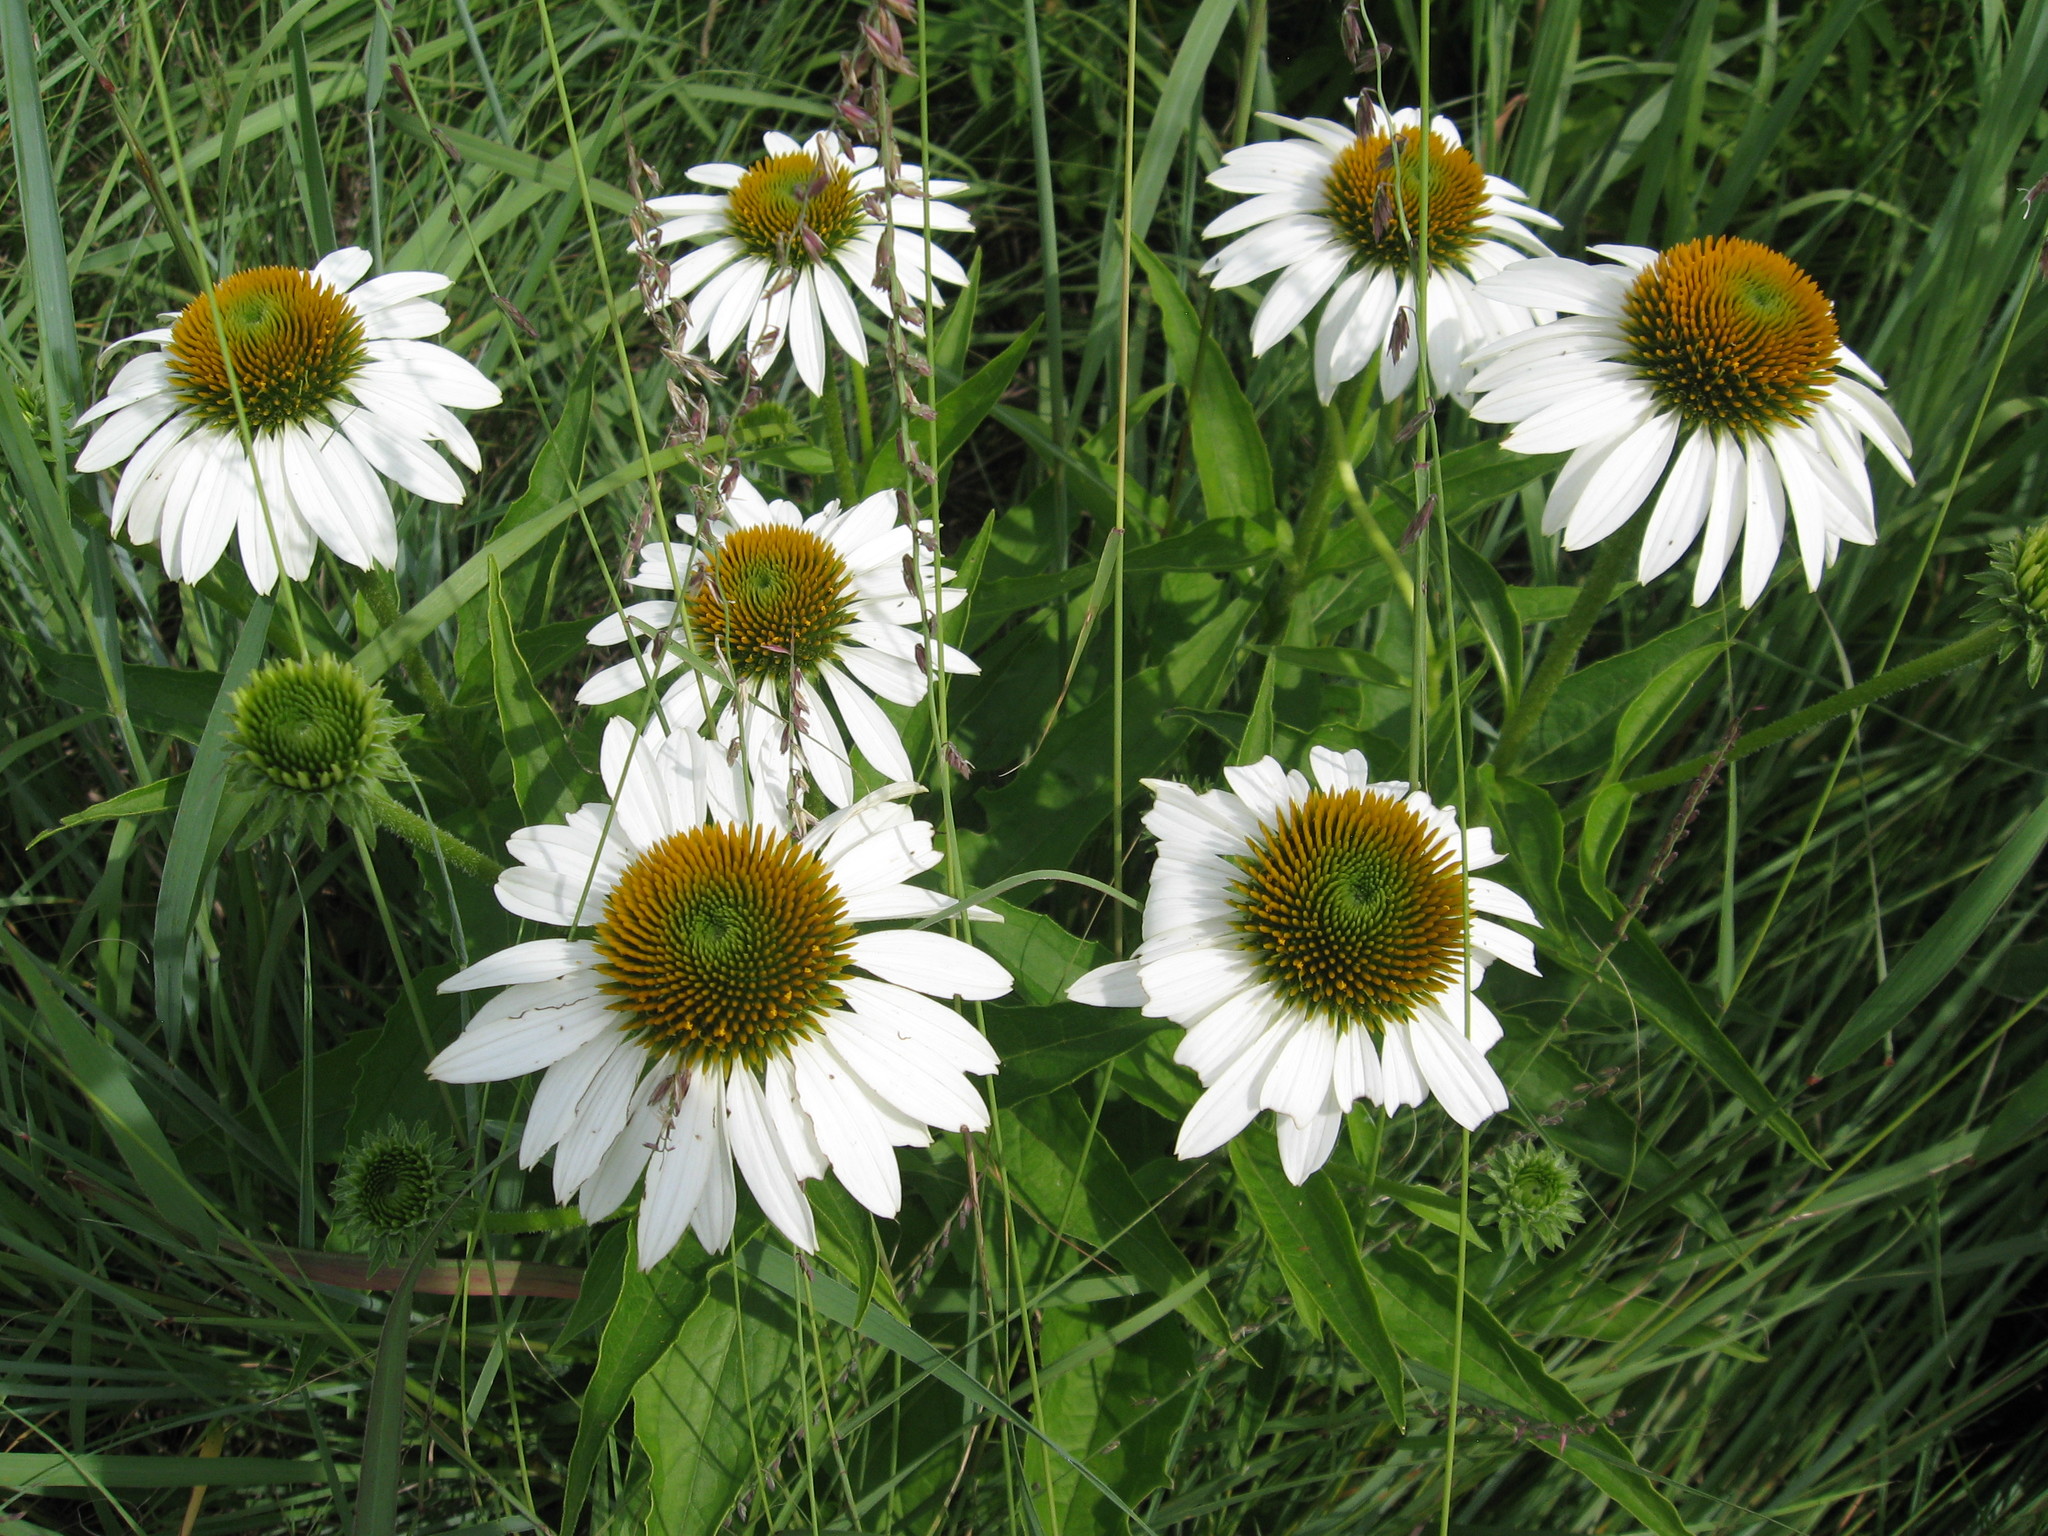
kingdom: Plantae
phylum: Tracheophyta
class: Magnoliopsida
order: Asterales
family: Asteraceae
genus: Echinacea
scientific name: Echinacea purpurea
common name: Broad-leaved purple coneflower
